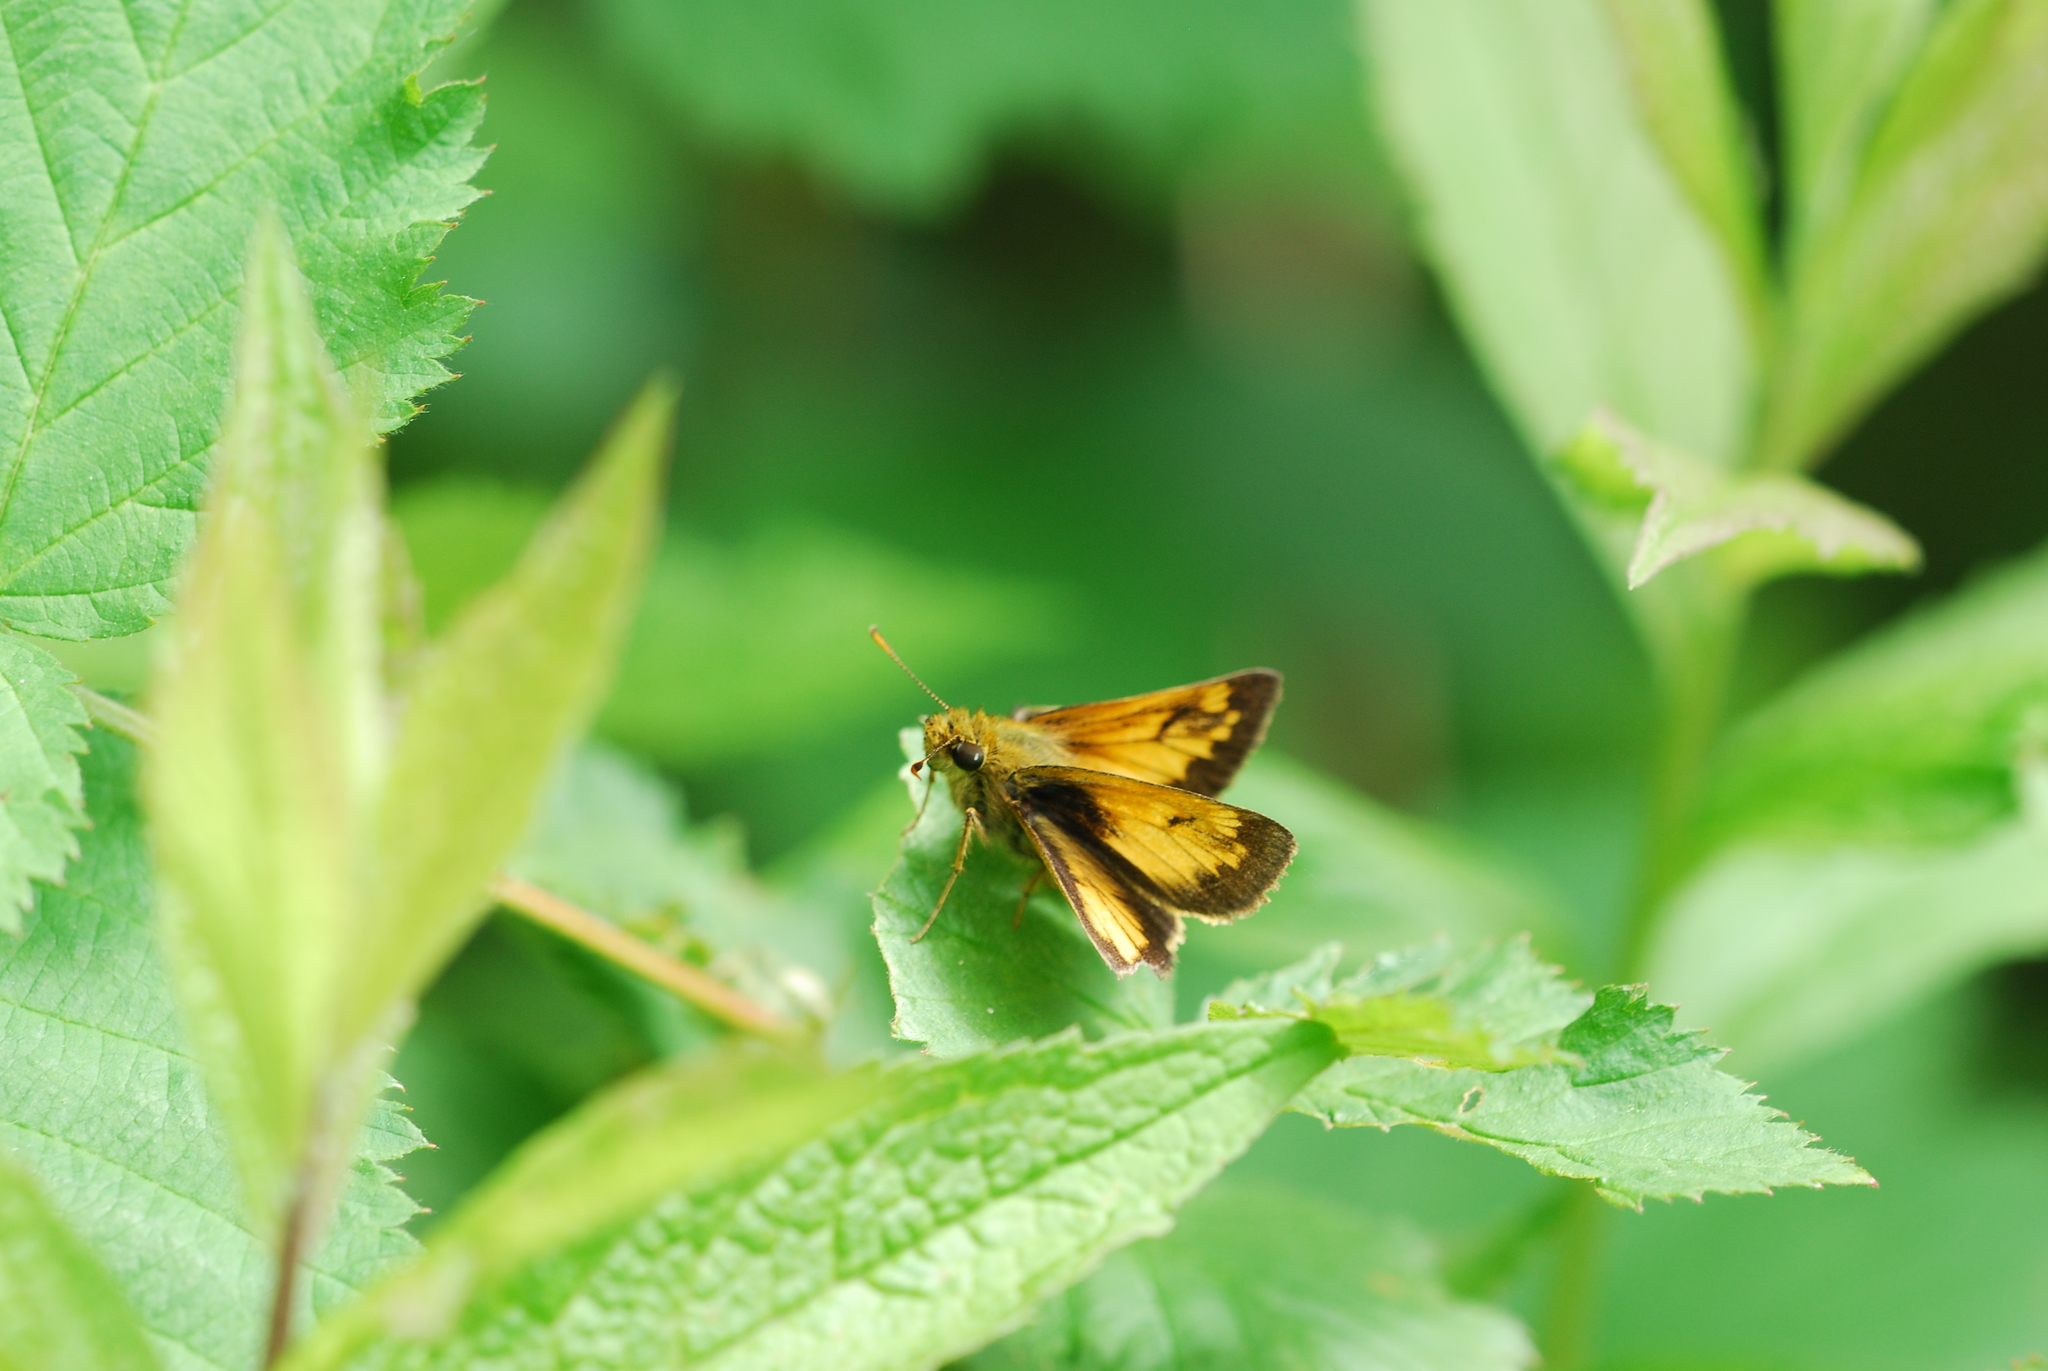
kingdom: Animalia
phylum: Arthropoda
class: Insecta
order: Lepidoptera
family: Hesperiidae
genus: Lon
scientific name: Lon hobomok
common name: Hobomok skipper
